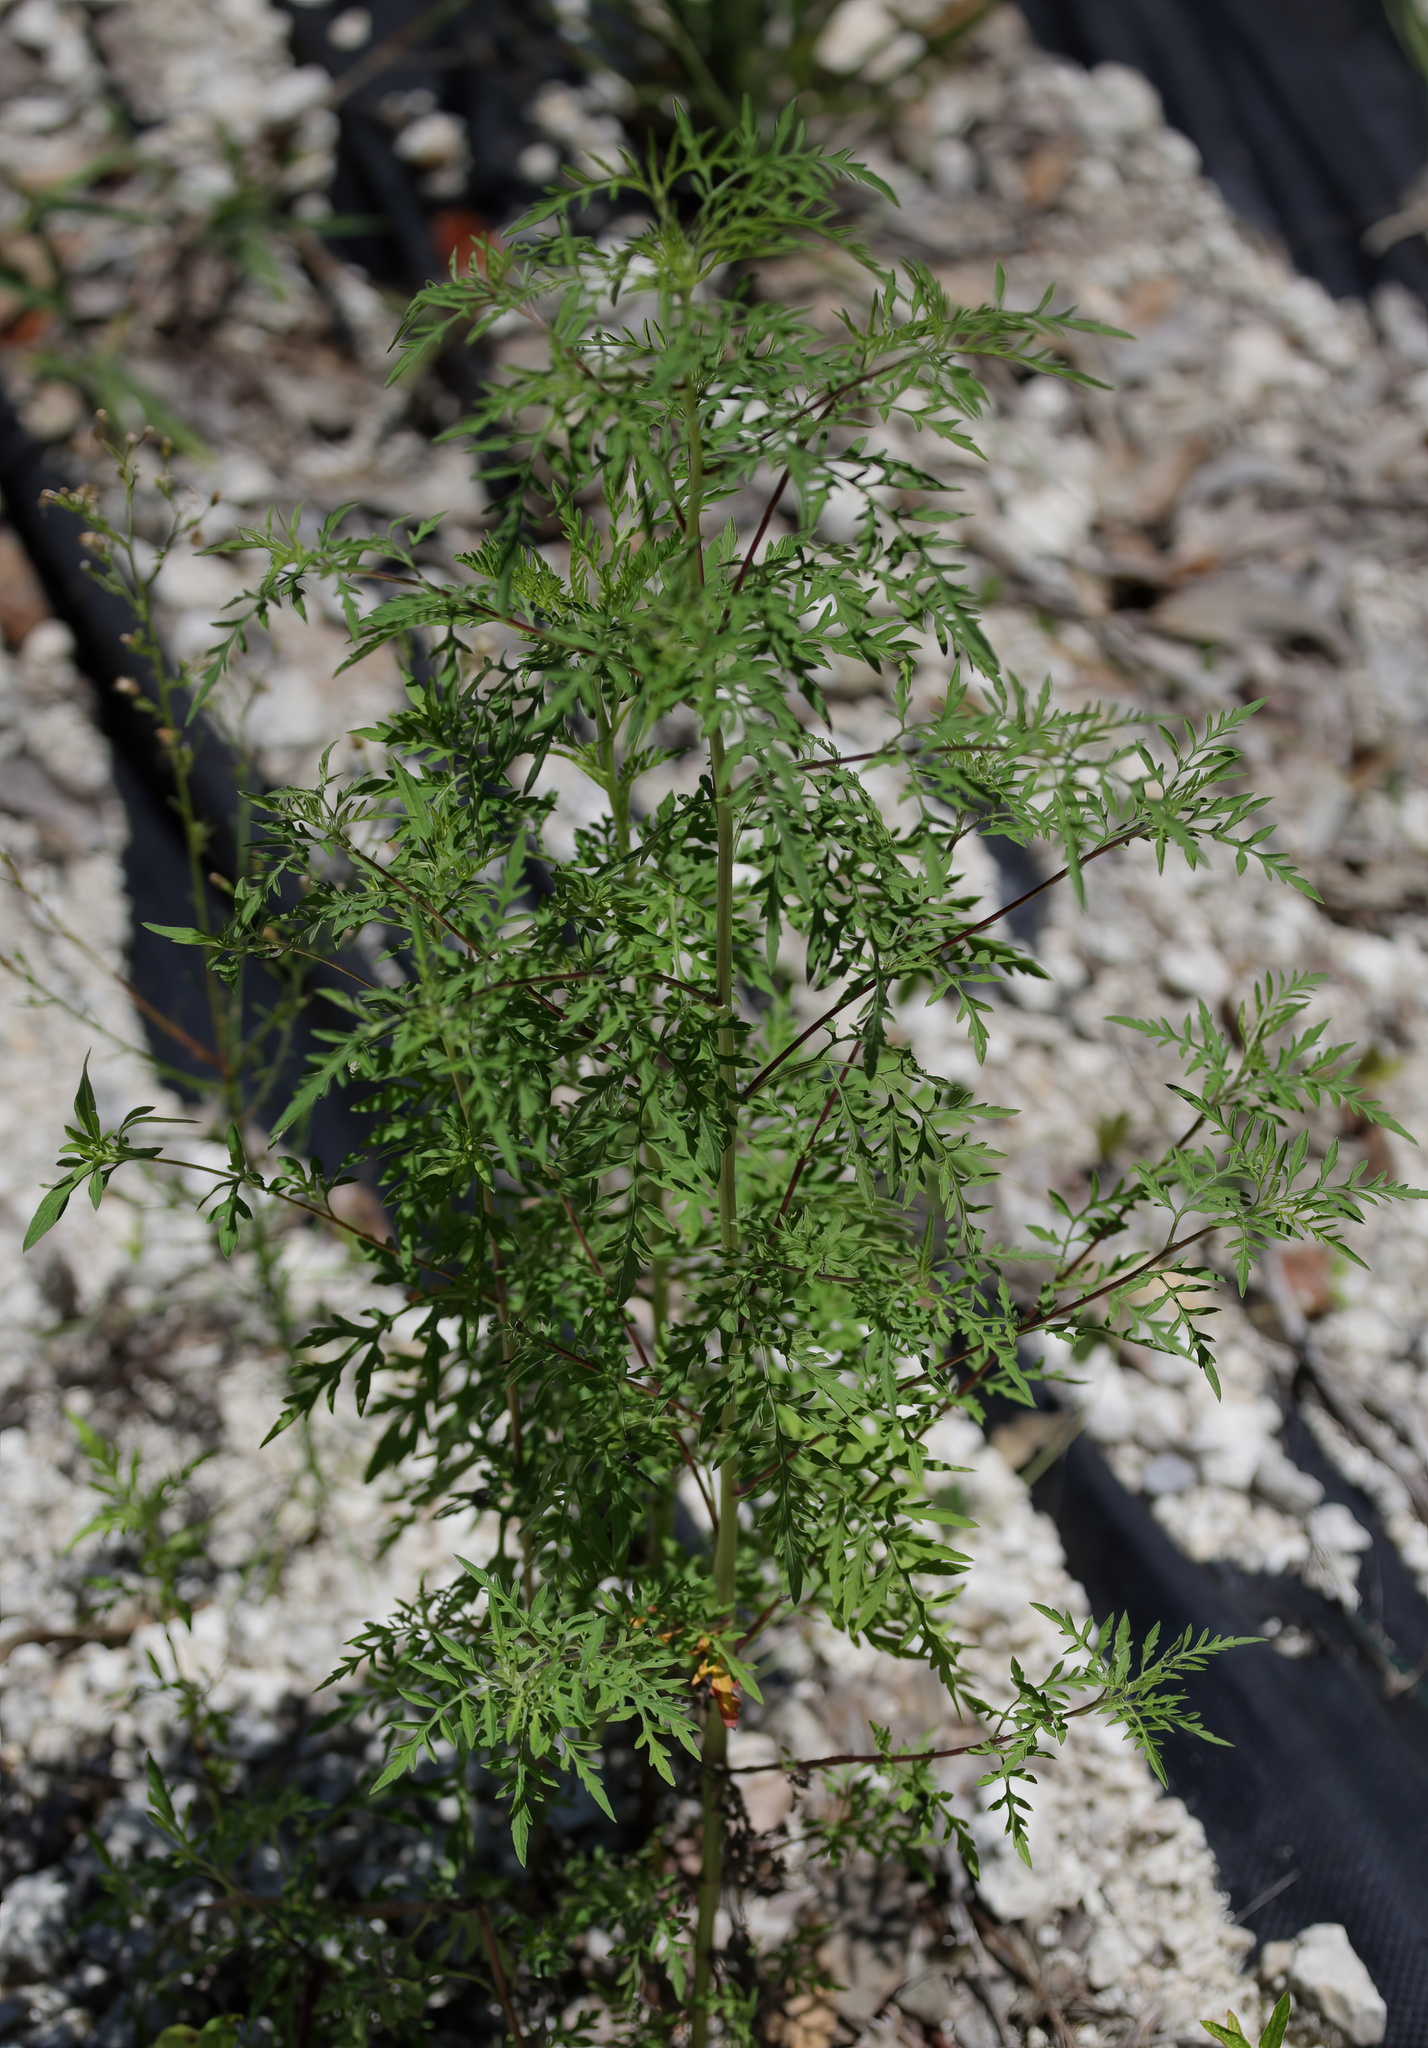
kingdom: Plantae
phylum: Tracheophyta
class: Magnoliopsida
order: Asterales
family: Asteraceae
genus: Ambrosia
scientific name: Ambrosia artemisiifolia
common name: Annual ragweed
